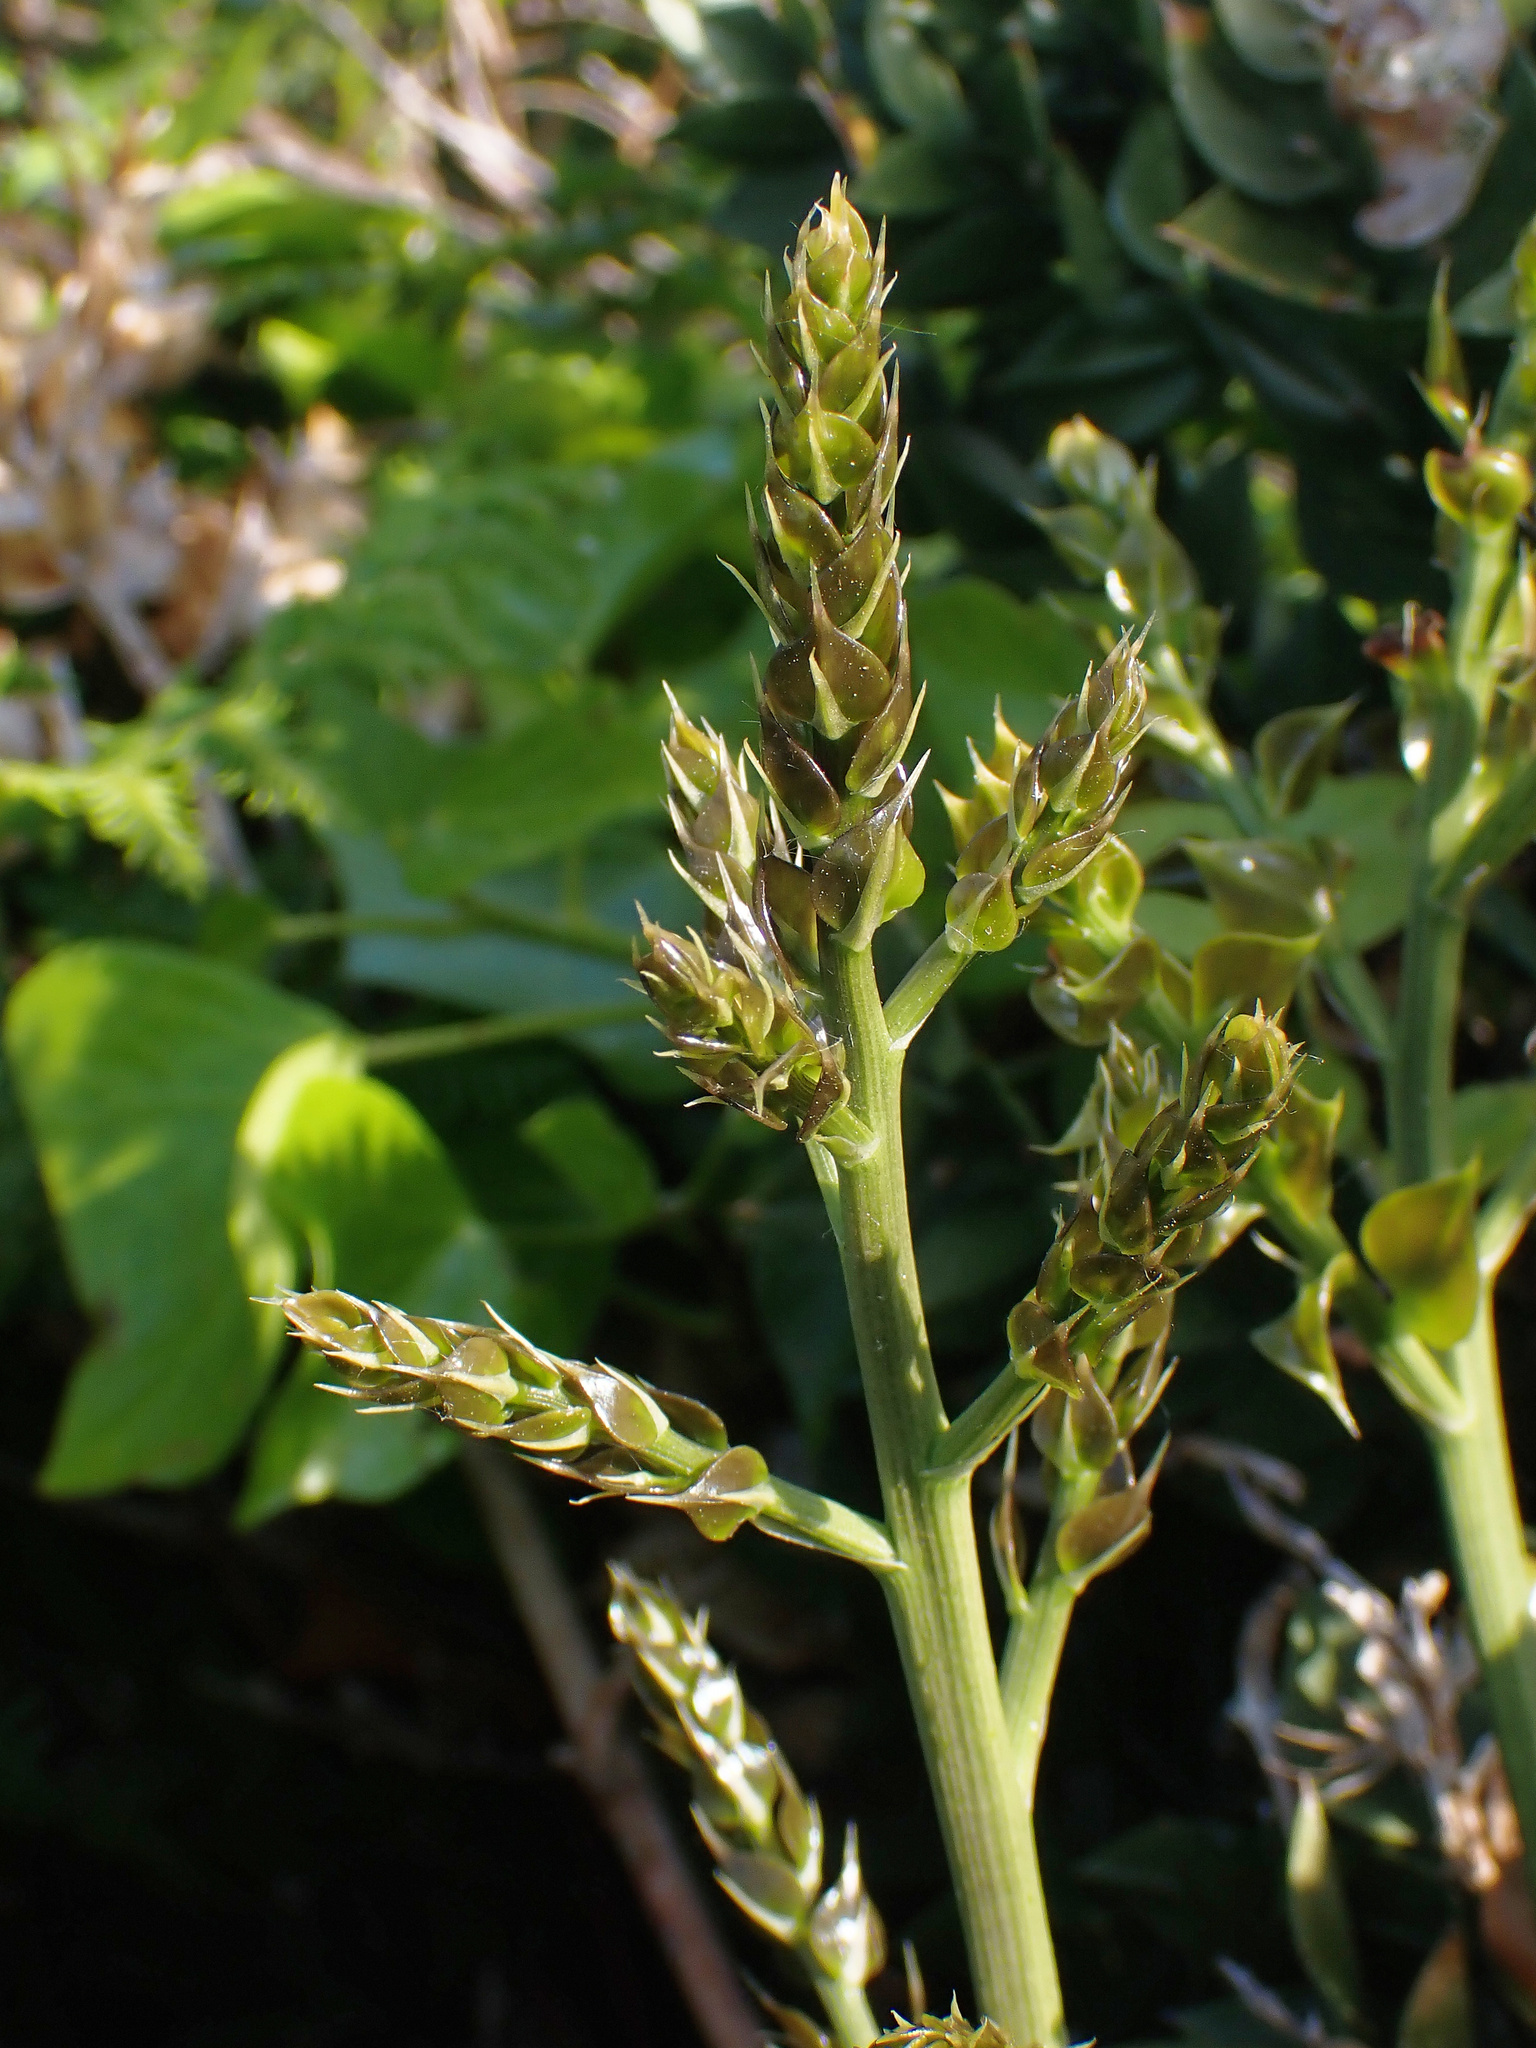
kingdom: Plantae
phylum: Tracheophyta
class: Liliopsida
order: Asparagales
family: Asparagaceae
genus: Ruscus
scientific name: Ruscus aculeatus
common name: Butcher's-broom
